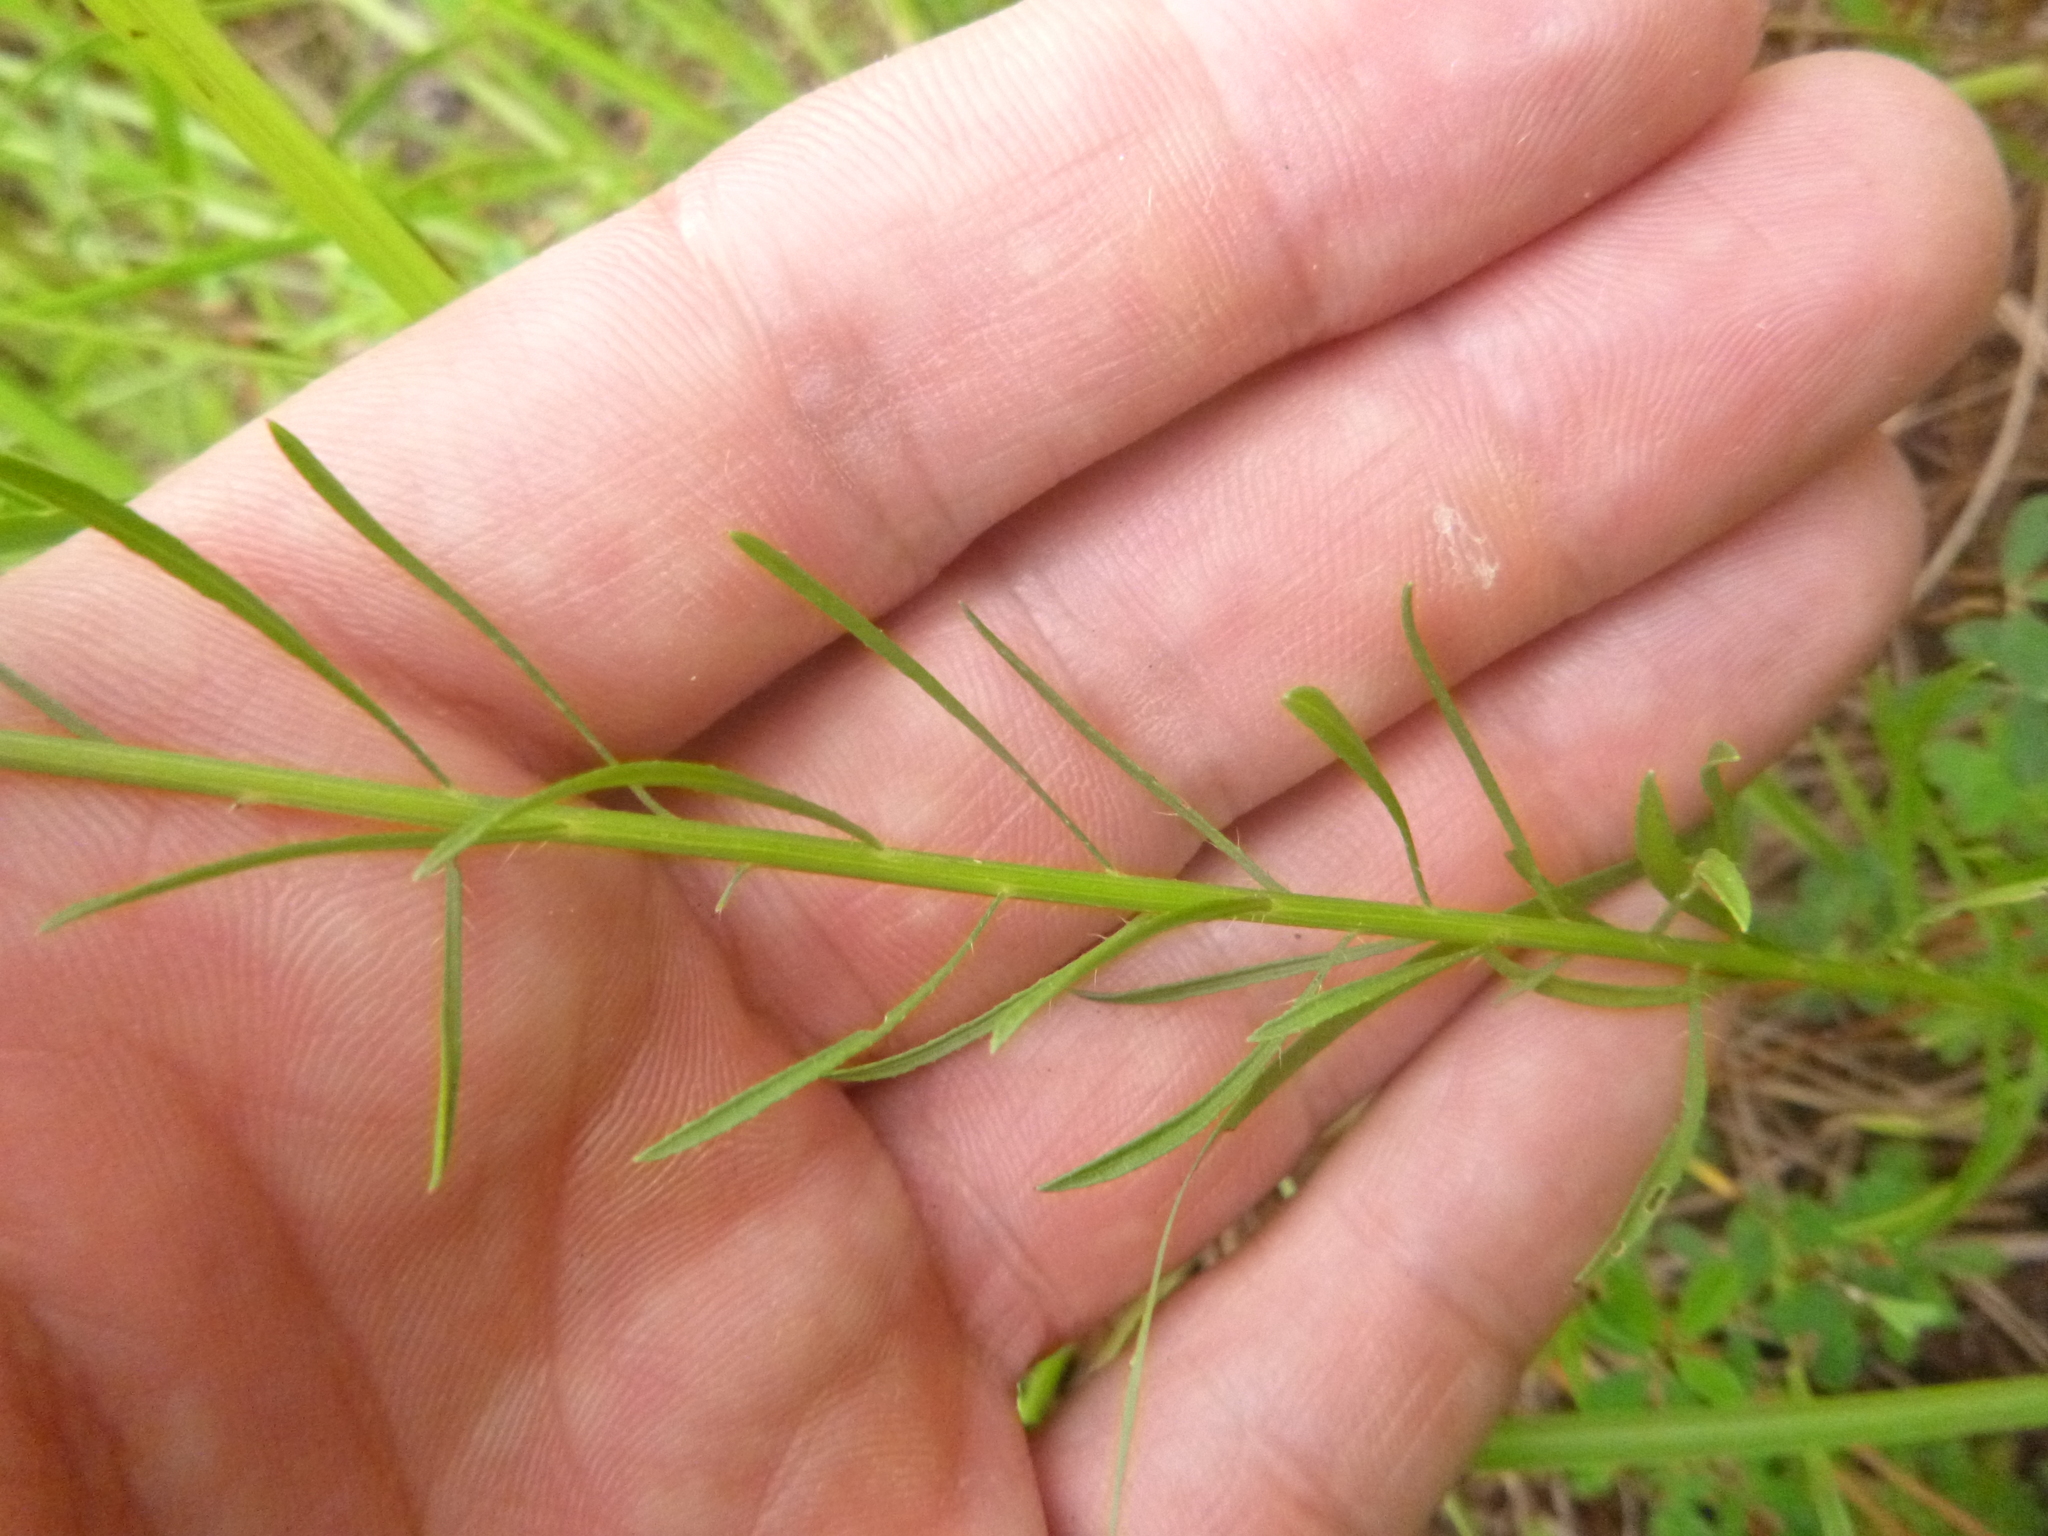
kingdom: Plantae
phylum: Tracheophyta
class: Magnoliopsida
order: Asterales
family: Asteraceae
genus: Erigeron
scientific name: Erigeron canadensis
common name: Canadian fleabane
